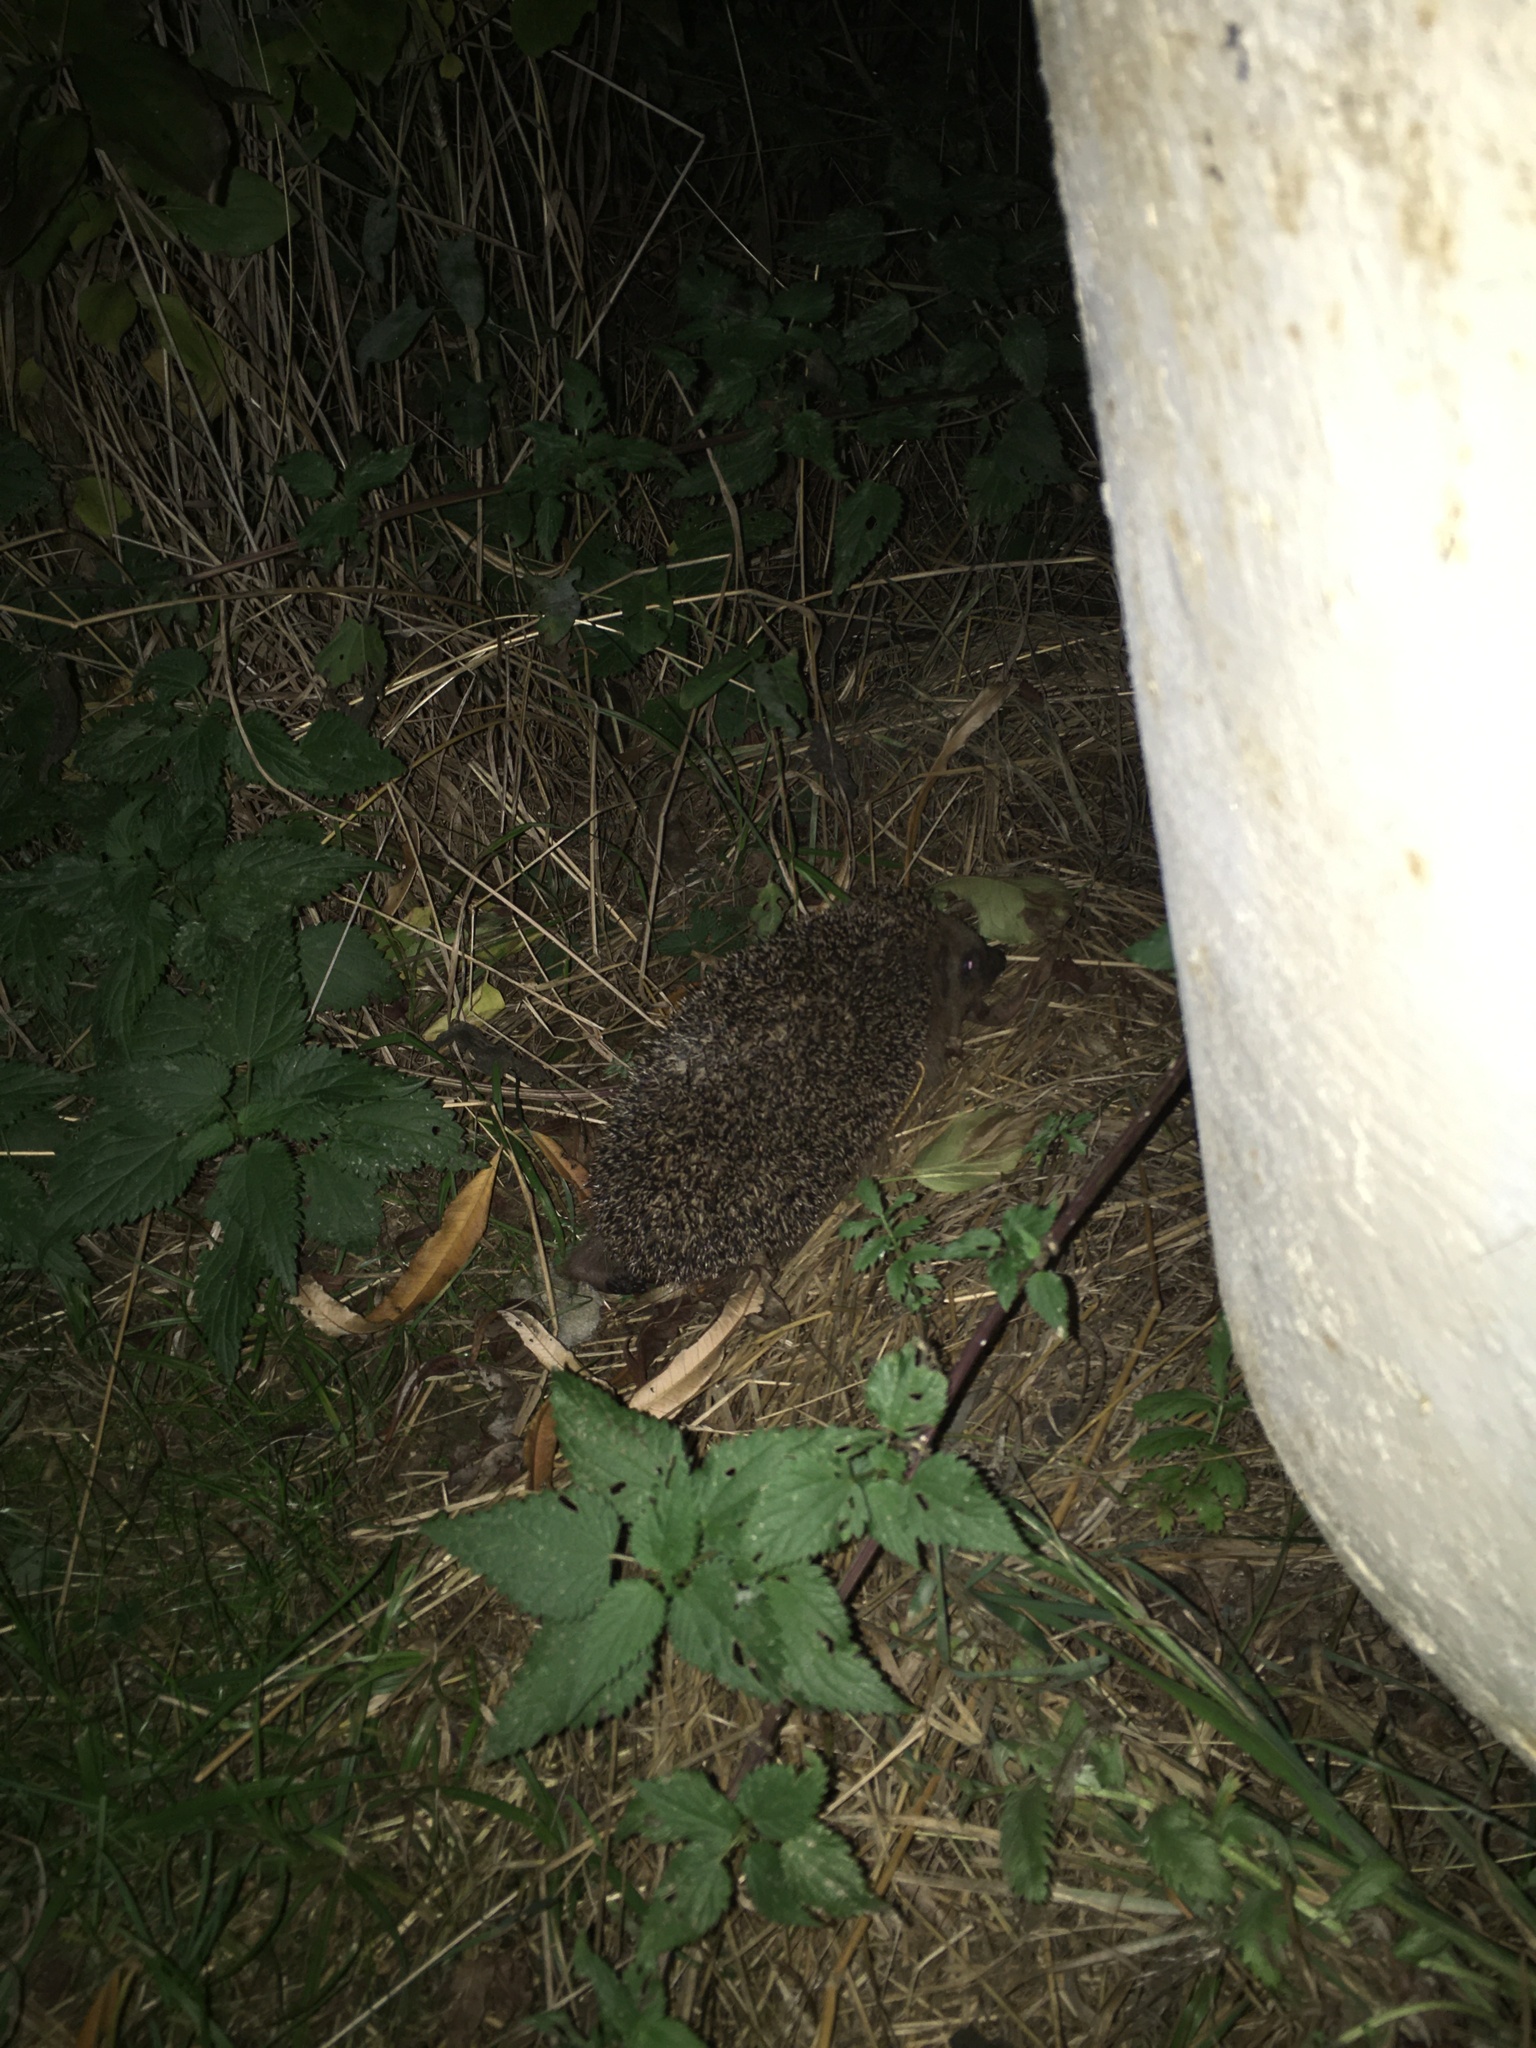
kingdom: Animalia
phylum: Chordata
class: Mammalia
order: Erinaceomorpha
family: Erinaceidae
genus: Erinaceus
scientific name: Erinaceus roumanicus
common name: Northern white-breasted hedgehog
